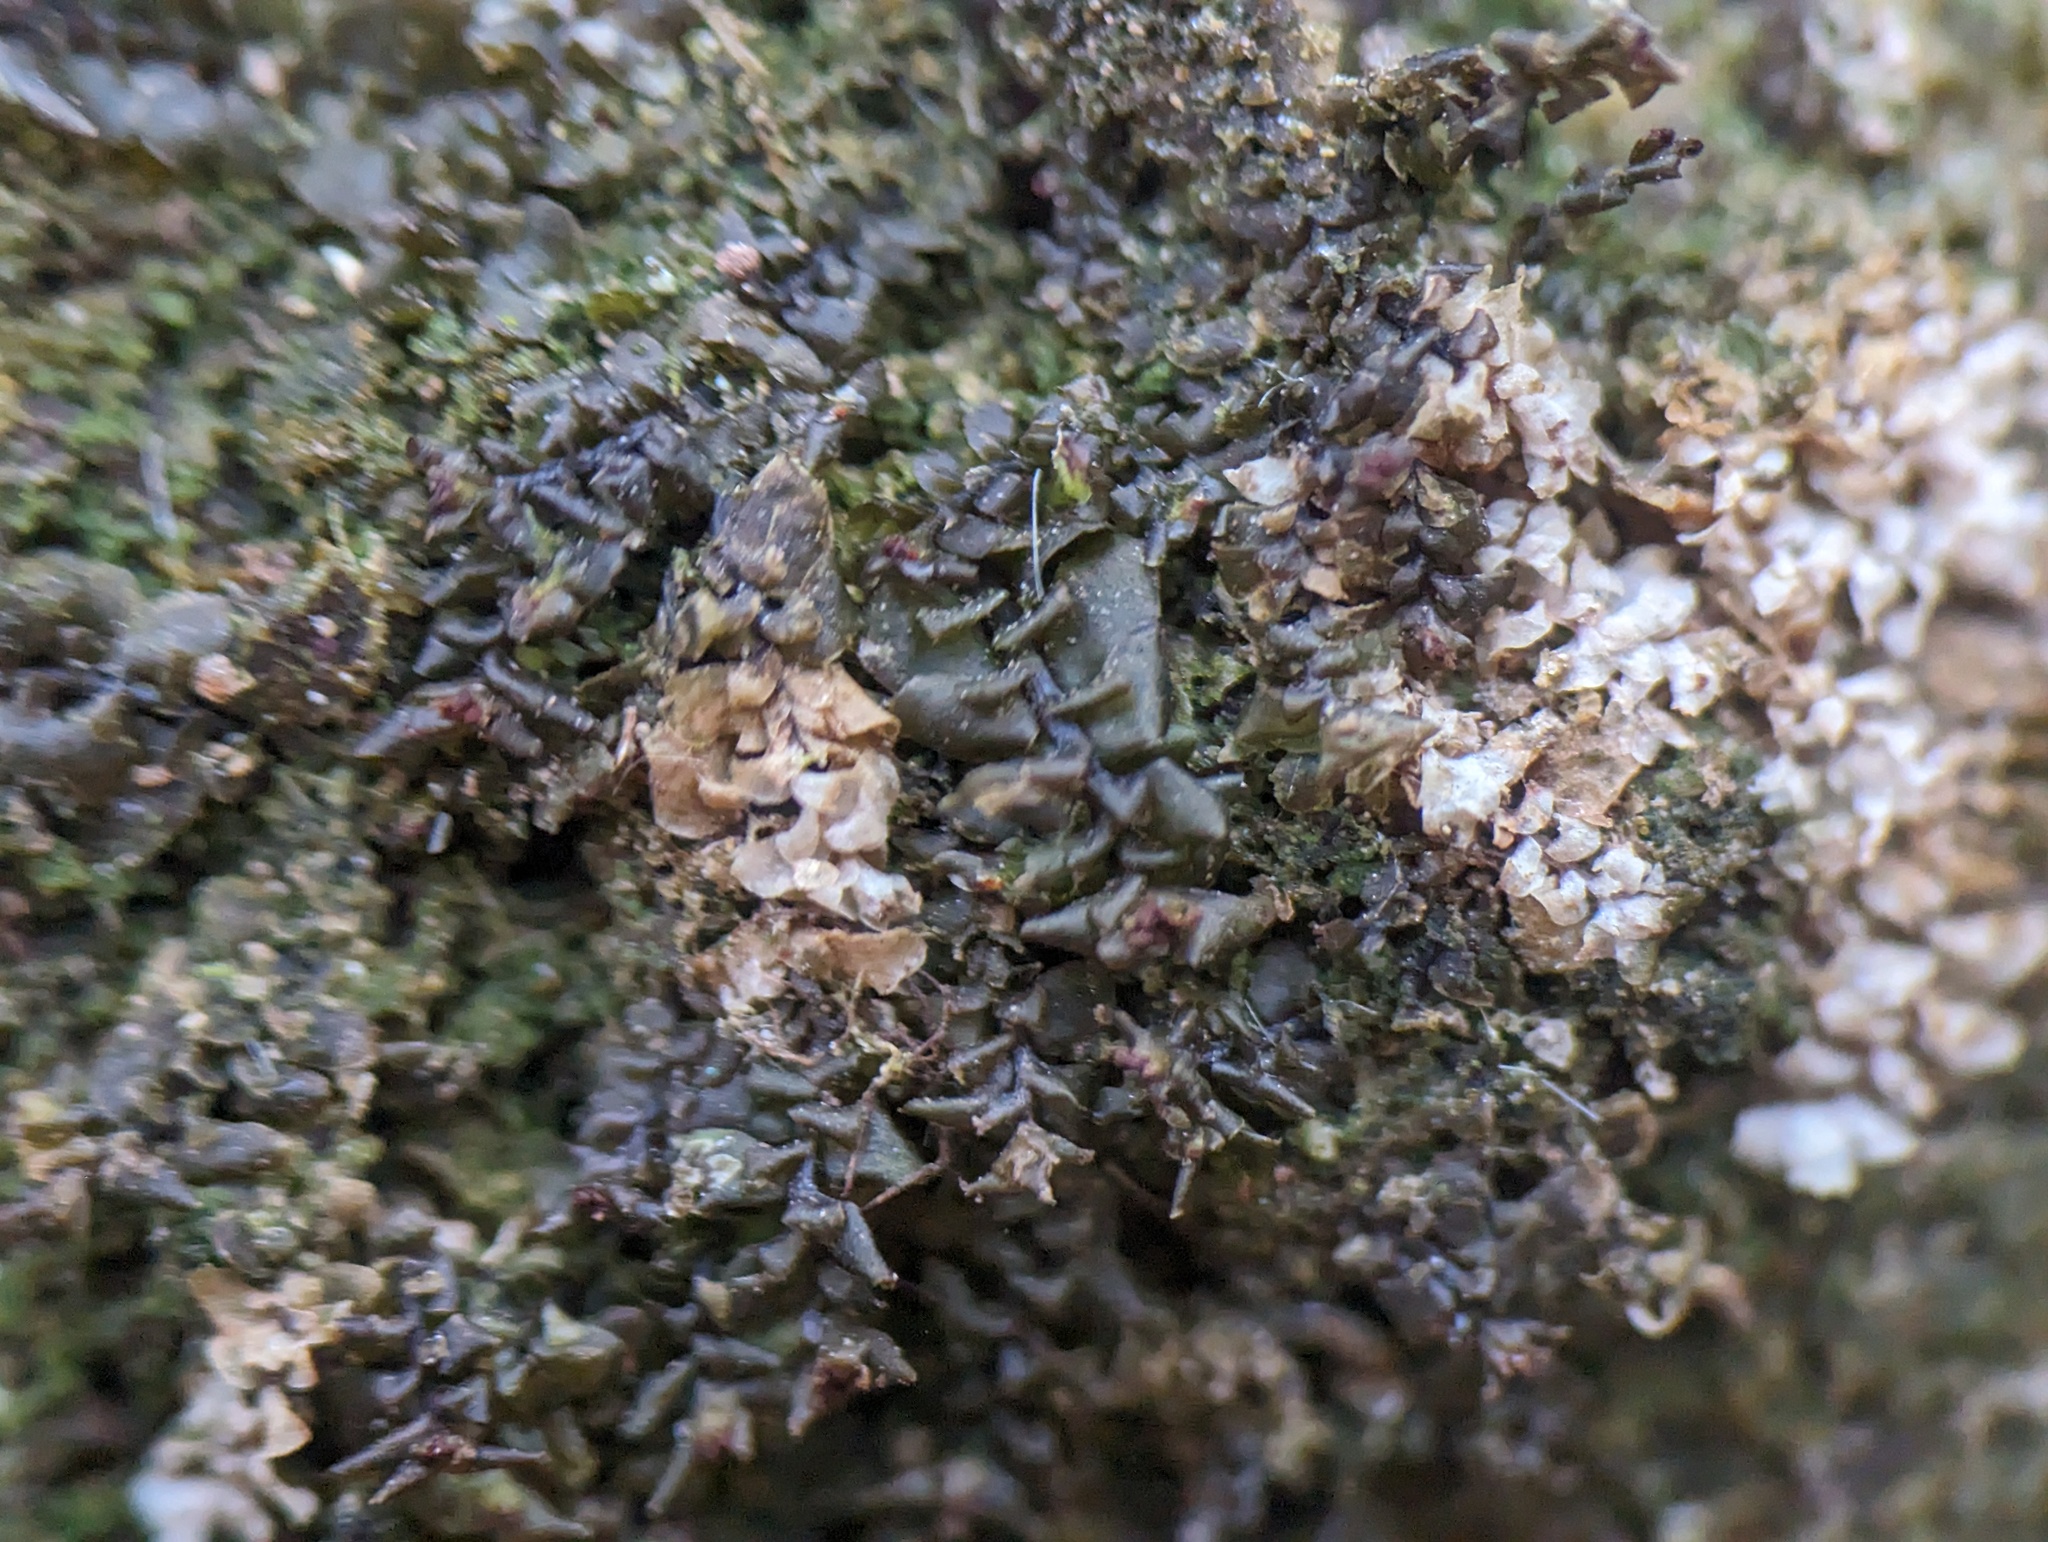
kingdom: Plantae
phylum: Marchantiophyta
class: Jungermanniopsida
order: Jungermanniales
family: Scapaniaceae
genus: Scapania
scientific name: Scapania nemorea
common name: Grove earwort
